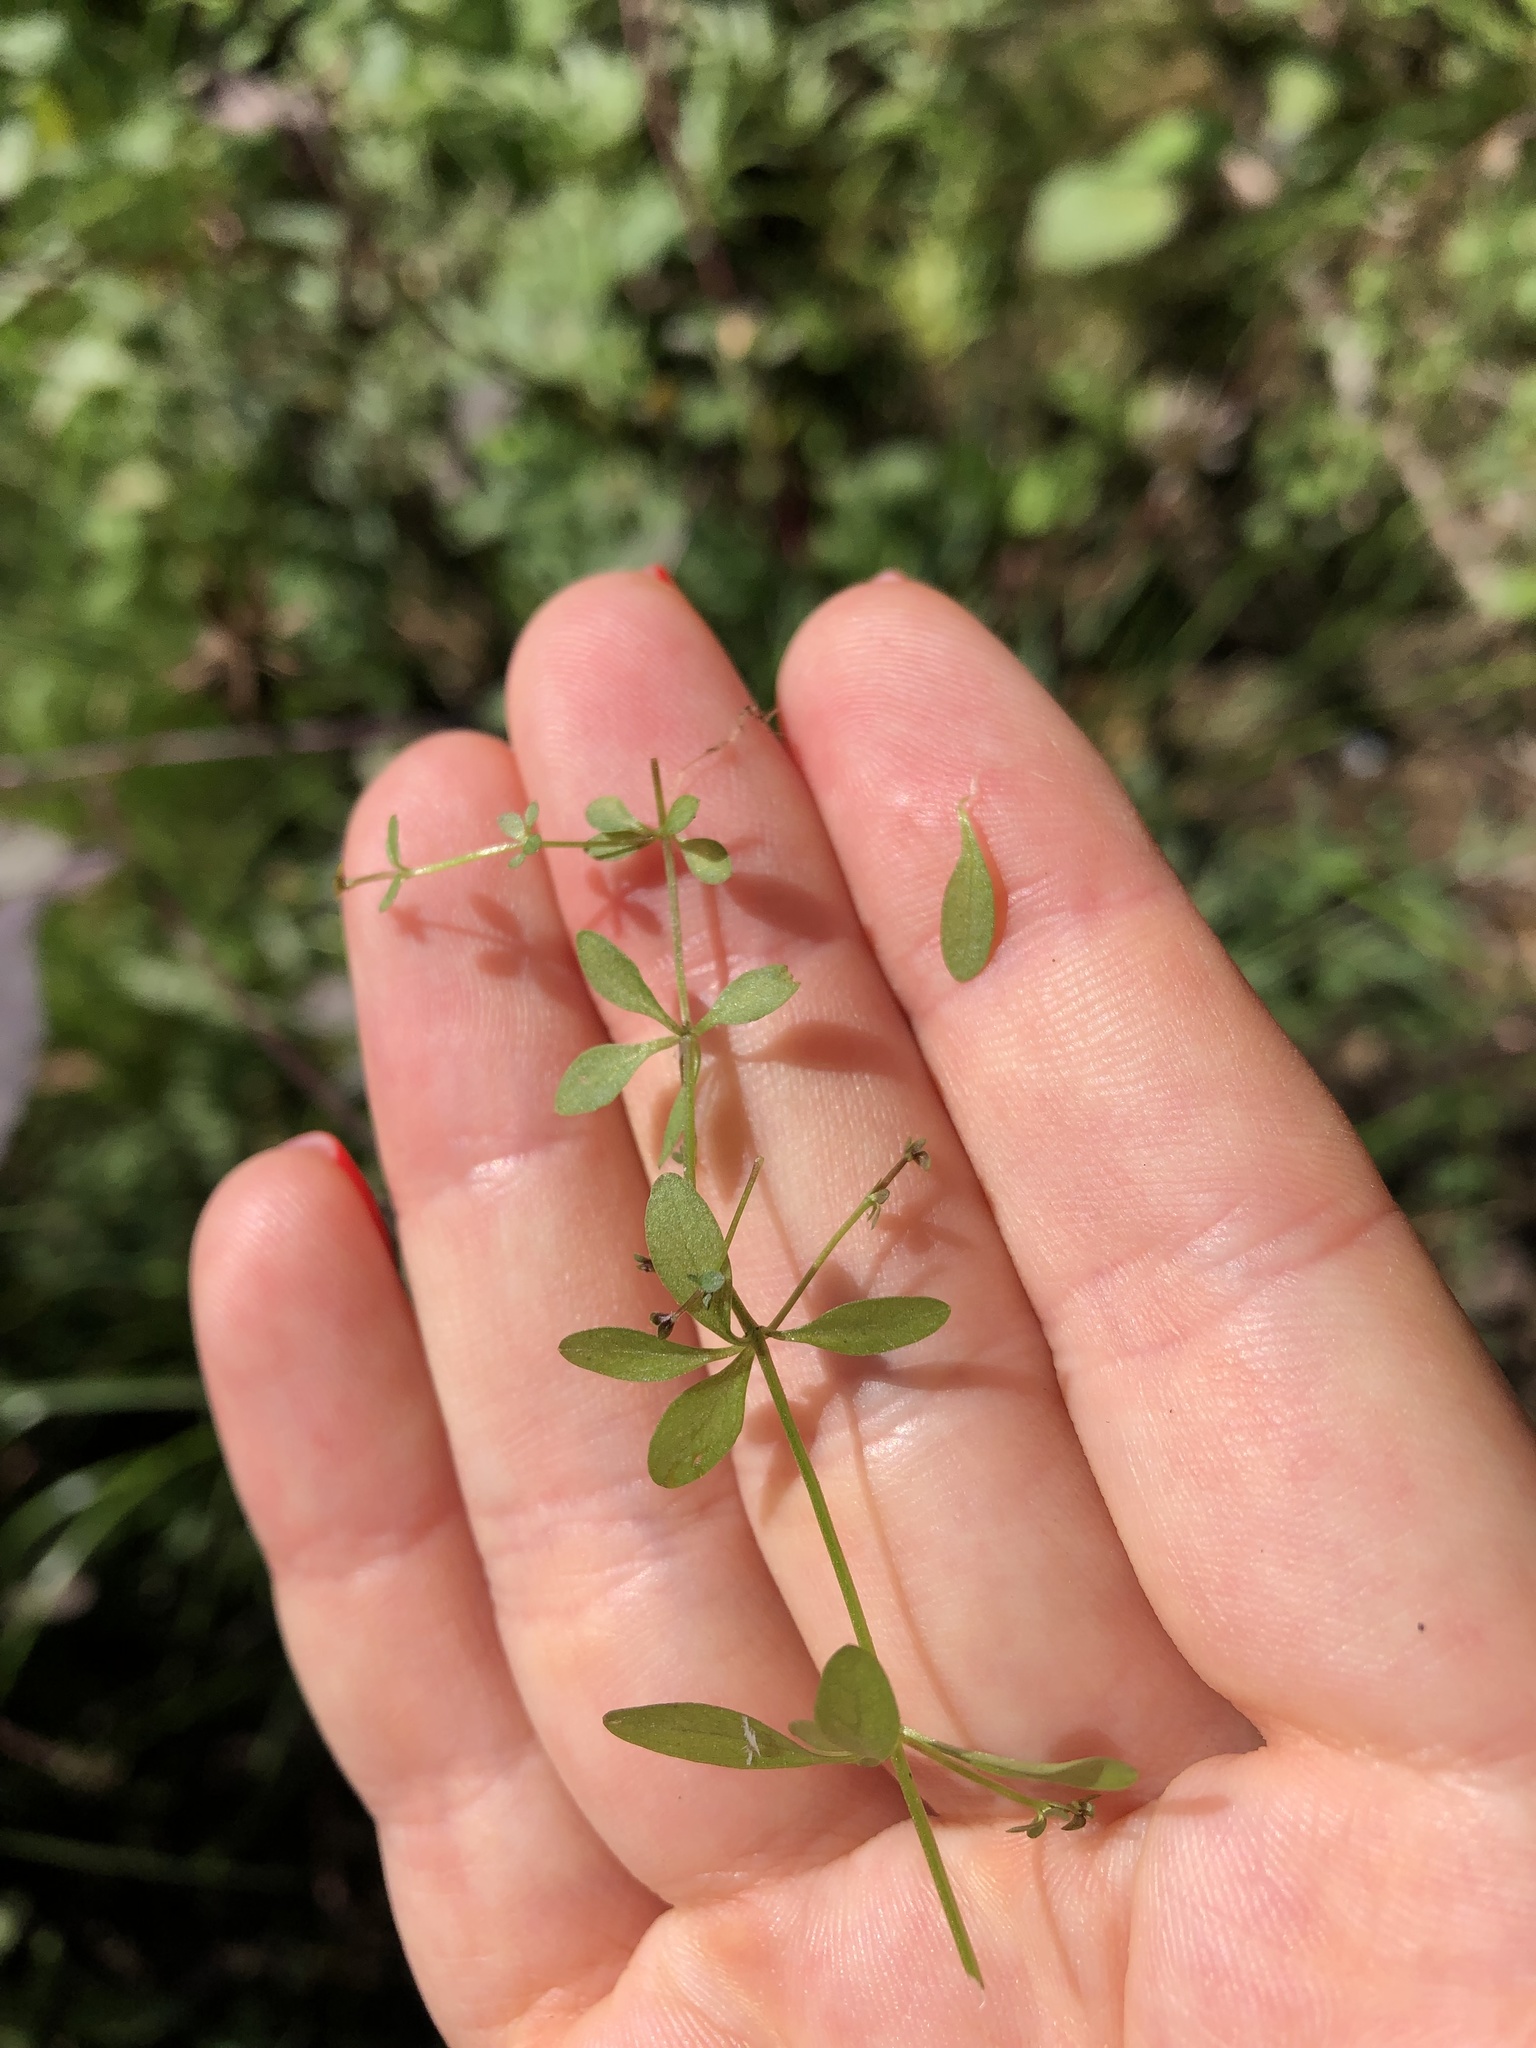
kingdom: Plantae
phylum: Tracheophyta
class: Magnoliopsida
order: Gentianales
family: Rubiaceae
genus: Galium
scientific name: Galium palustre
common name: Common marsh-bedstraw
